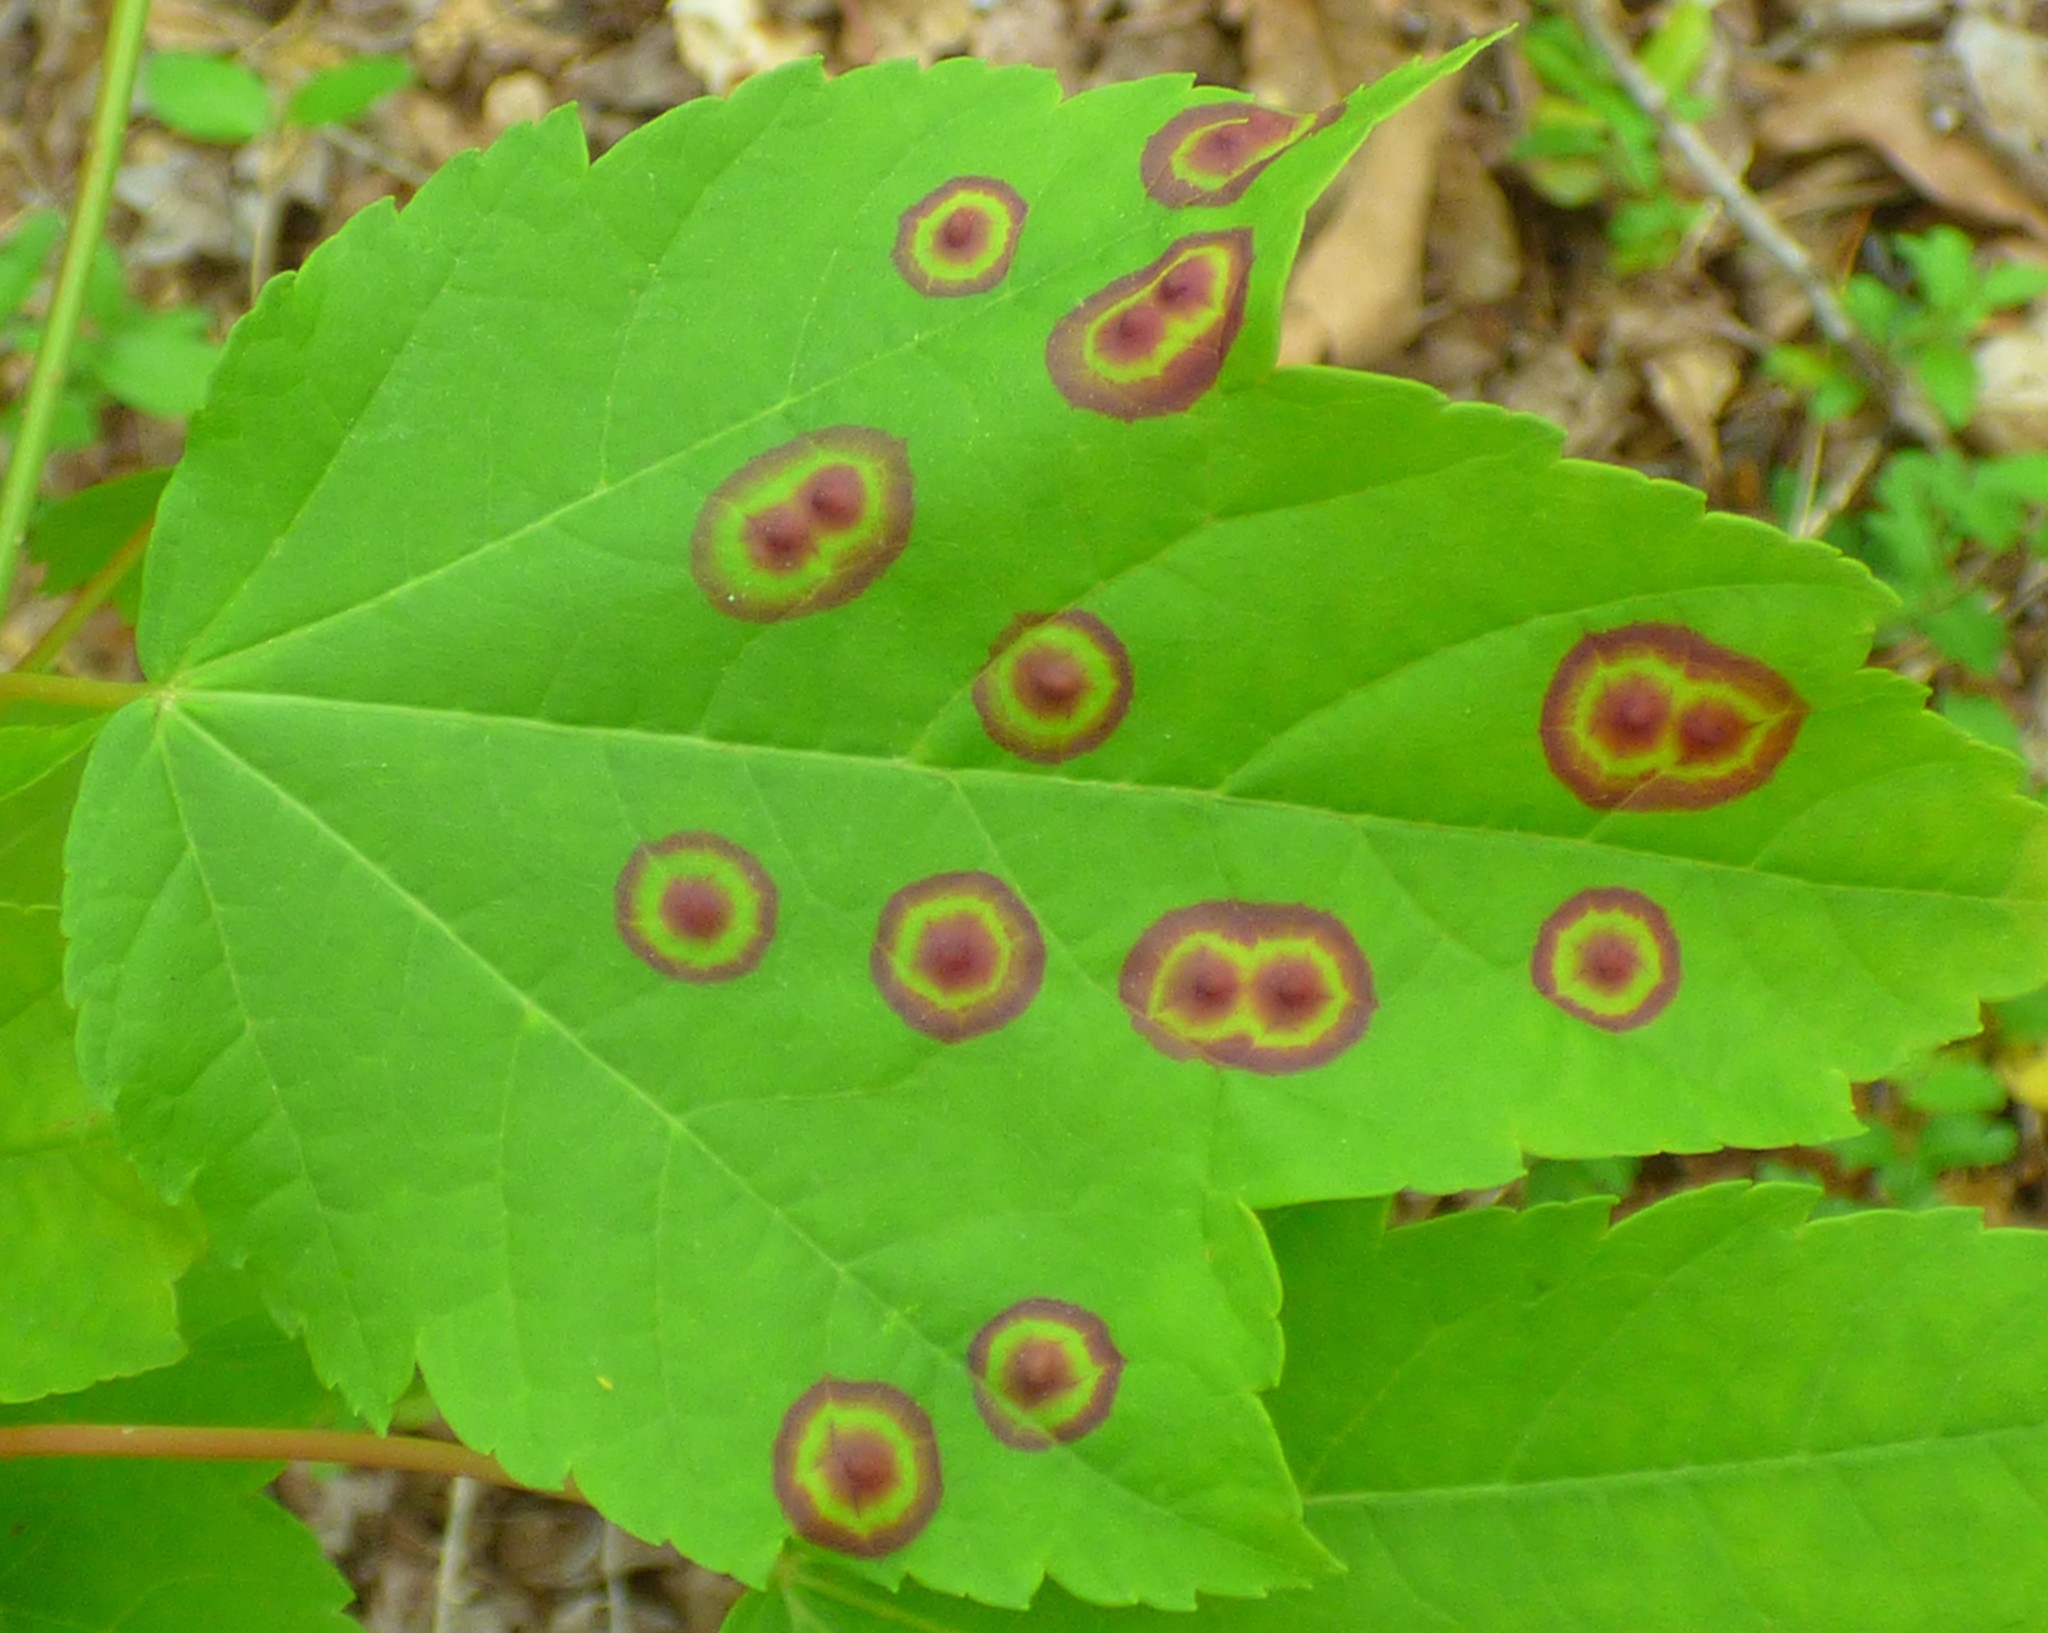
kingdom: Animalia
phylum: Arthropoda
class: Insecta
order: Diptera
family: Cecidomyiidae
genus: Acericecis
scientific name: Acericecis ocellaris
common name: Ocellate gall midge
